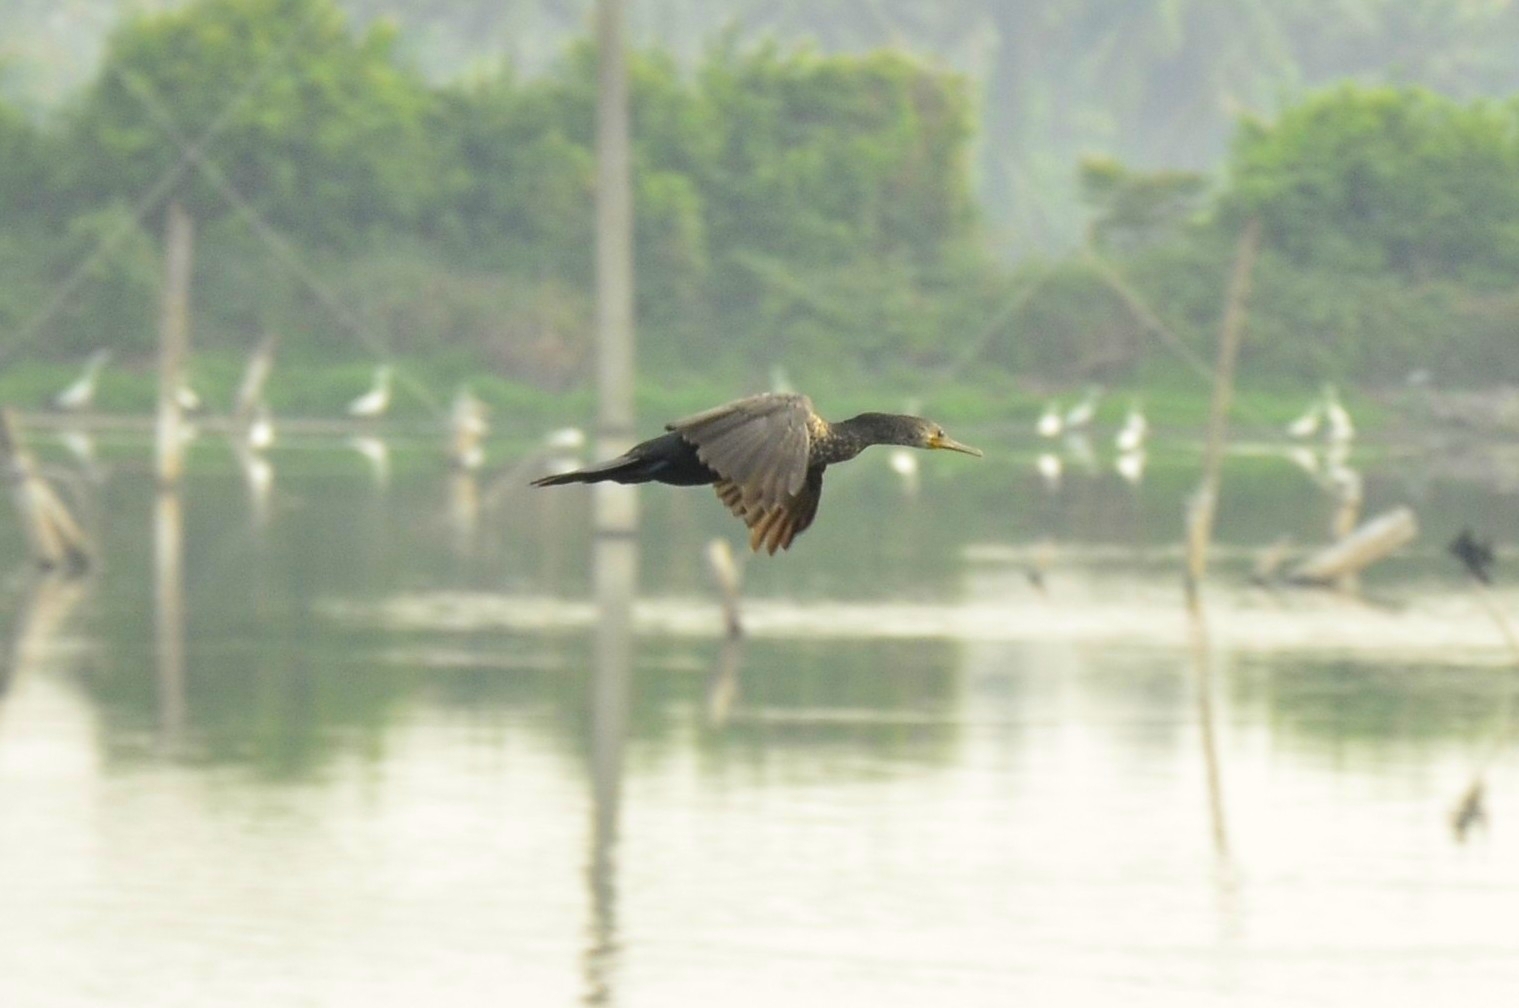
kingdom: Animalia
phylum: Chordata
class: Aves
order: Suliformes
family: Phalacrocoracidae
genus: Phalacrocorax
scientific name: Phalacrocorax fuscicollis
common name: Indian cormorant
